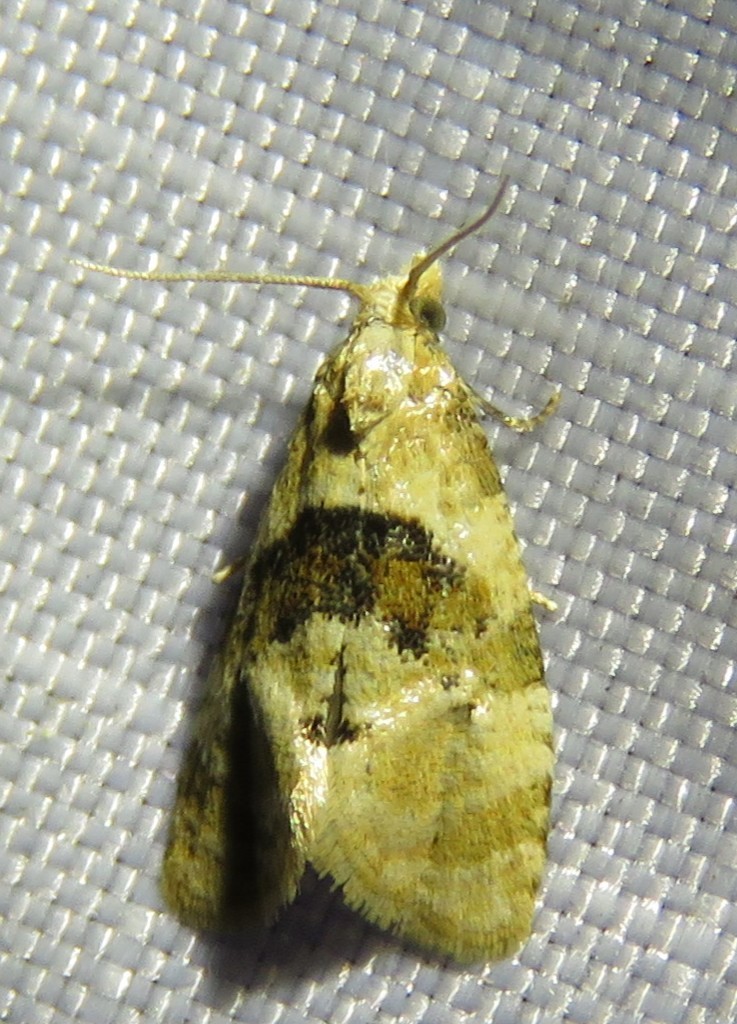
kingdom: Animalia
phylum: Arthropoda
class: Insecta
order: Lepidoptera
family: Tortricidae
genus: Phalonidia
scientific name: Phalonidia manniana
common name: Water-mint conch
